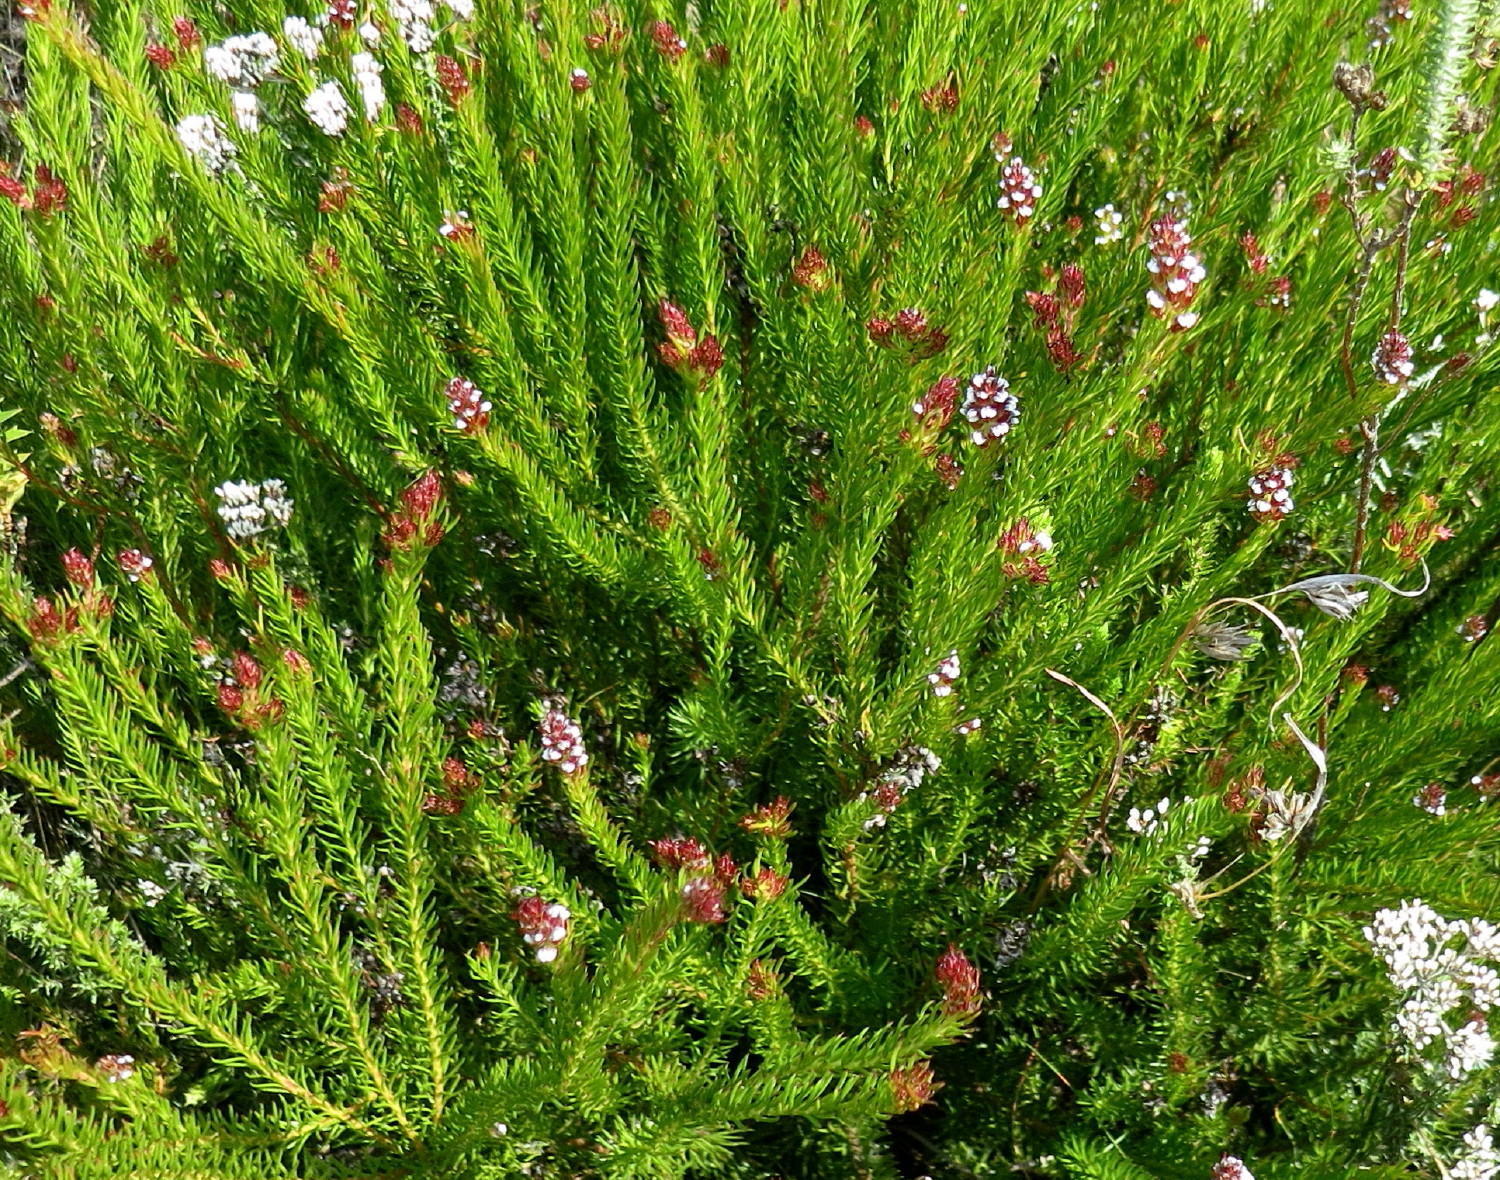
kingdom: Plantae
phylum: Tracheophyta
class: Magnoliopsida
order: Proteales
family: Proteaceae
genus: Spatalla
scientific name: Spatalla confusa
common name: Long-tube spoon
